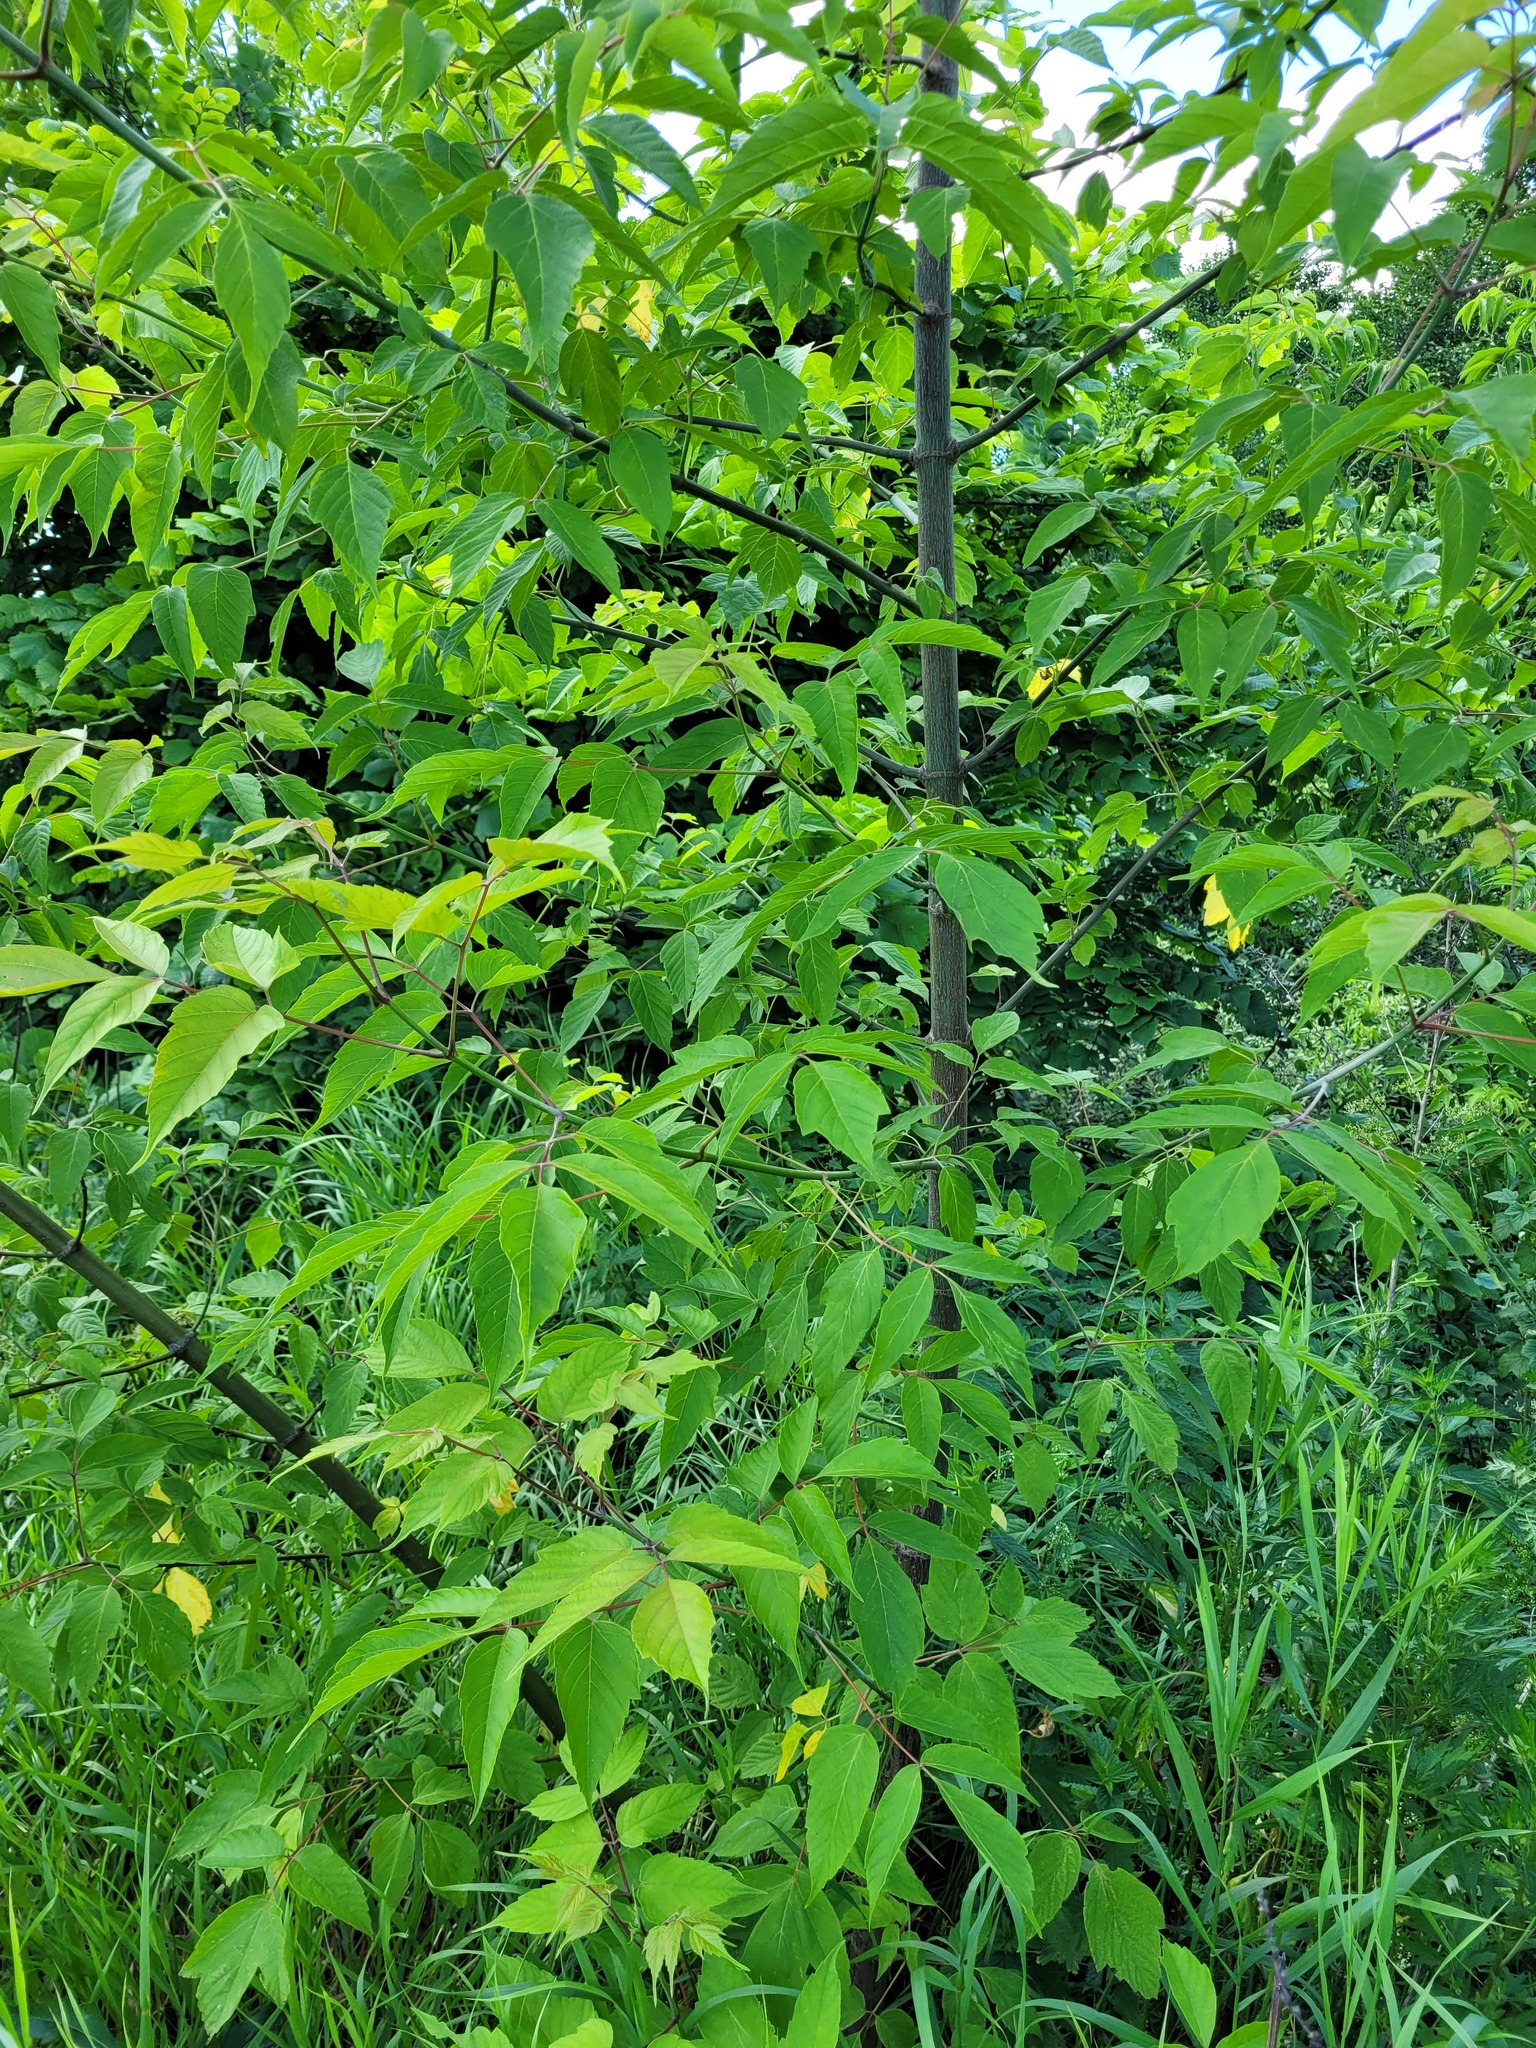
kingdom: Plantae
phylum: Tracheophyta
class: Magnoliopsida
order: Sapindales
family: Sapindaceae
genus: Acer
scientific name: Acer negundo
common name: Ashleaf maple
